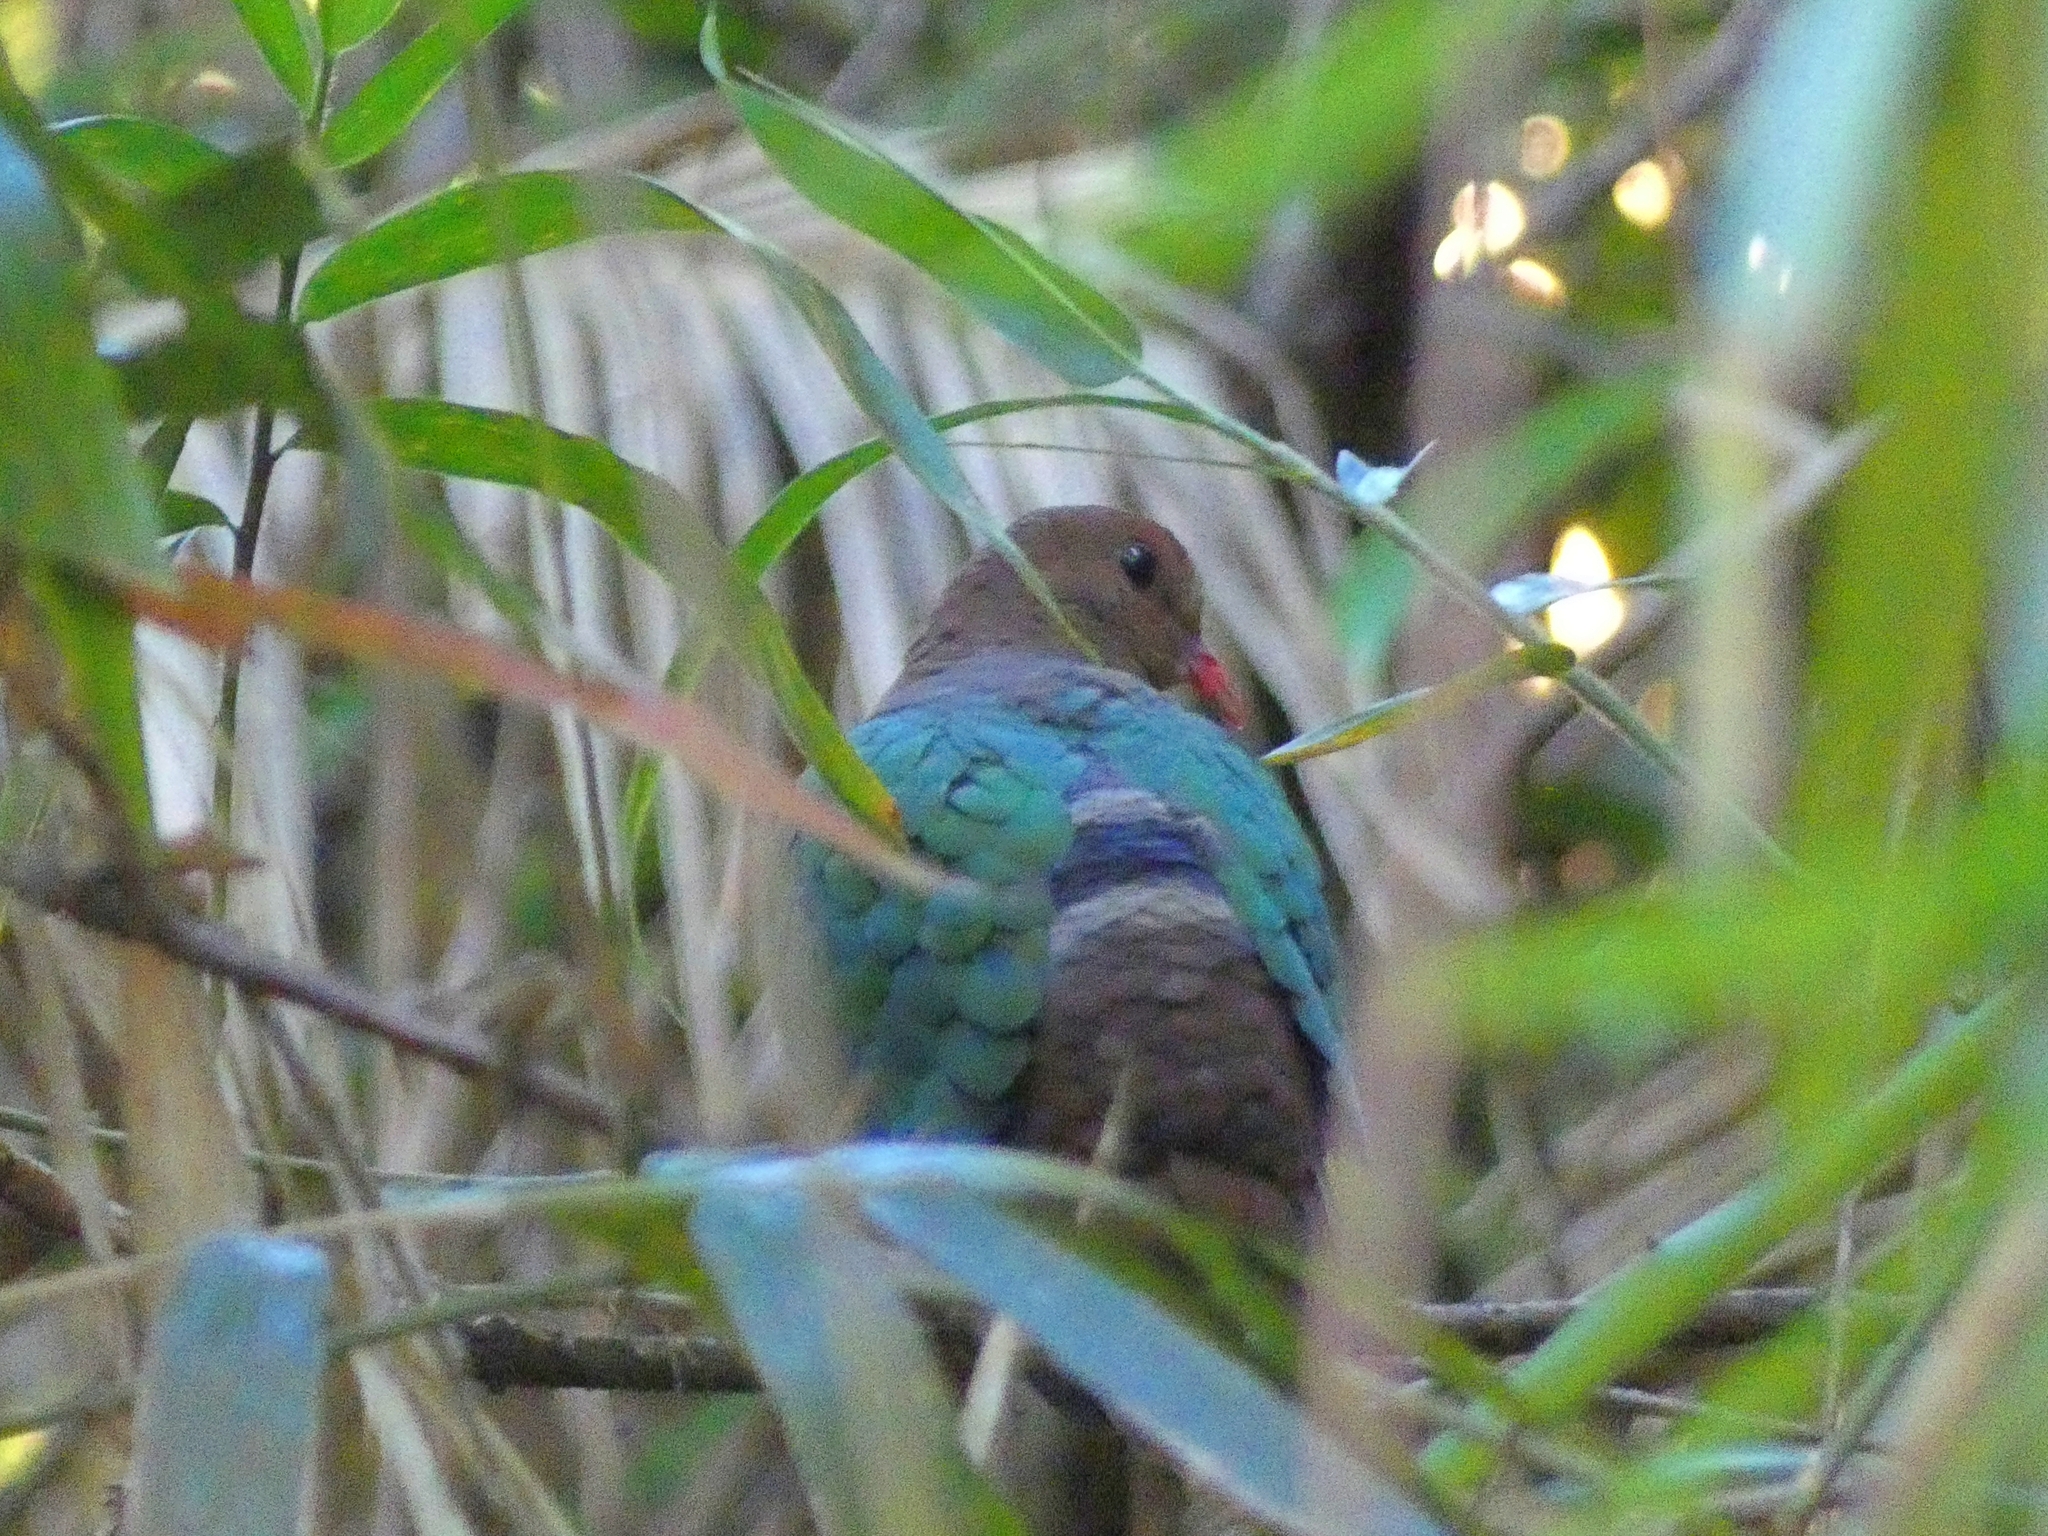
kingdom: Animalia
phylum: Chordata
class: Aves
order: Columbiformes
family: Columbidae
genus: Chalcophaps
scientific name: Chalcophaps longirostris
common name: Pacific emerald dove
